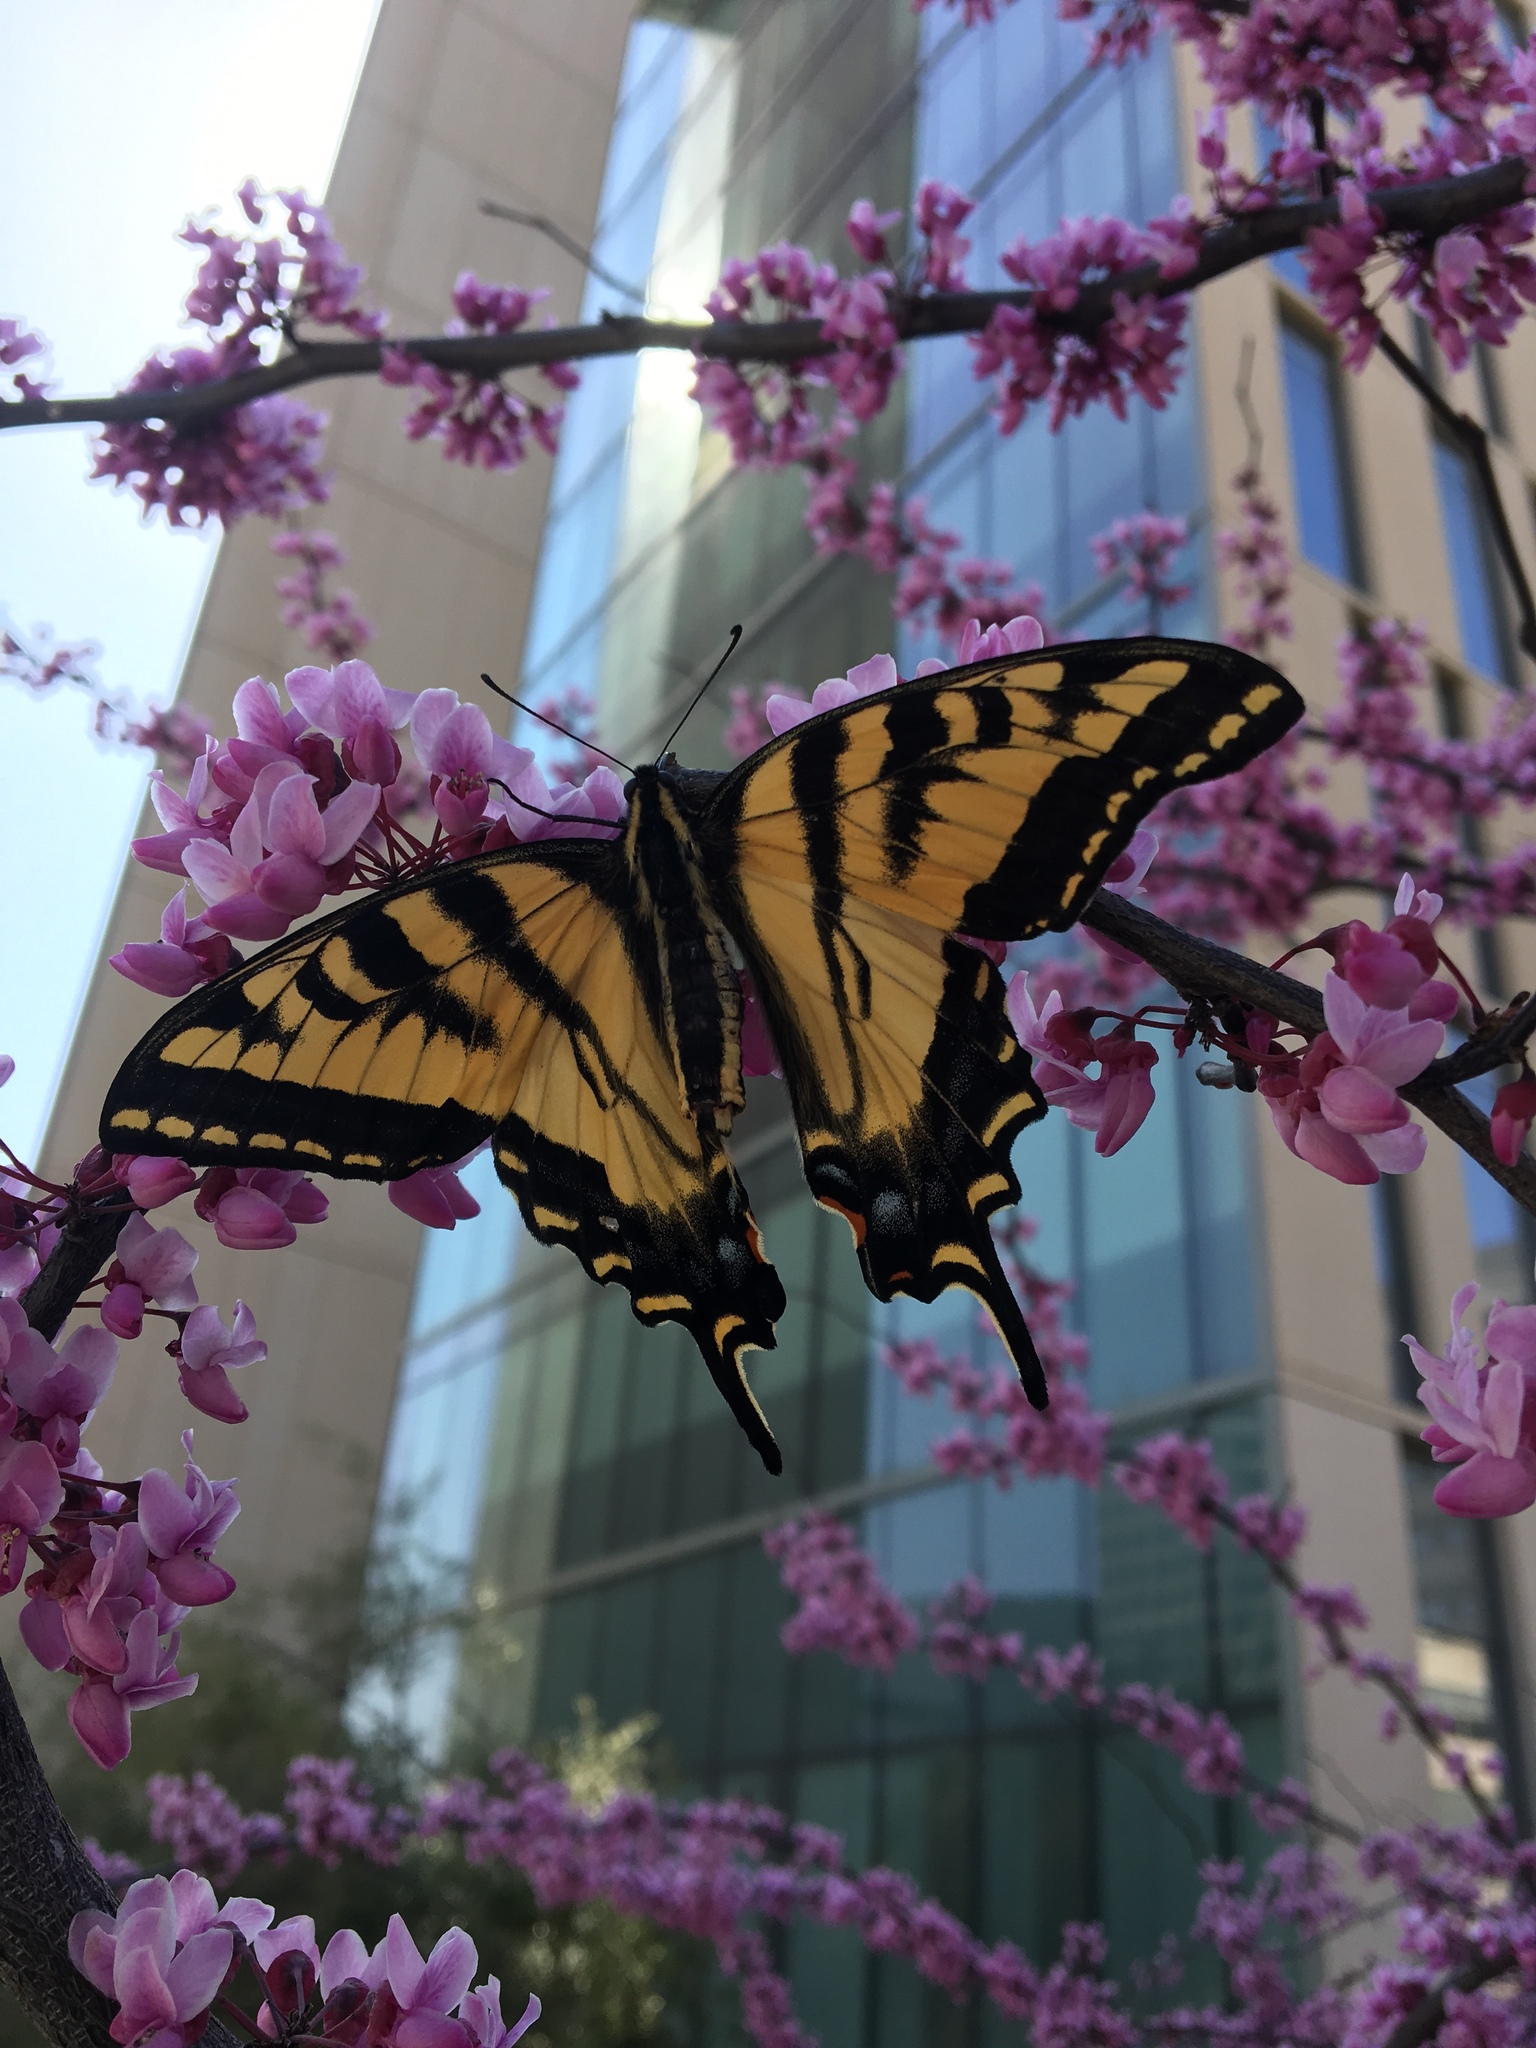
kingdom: Animalia
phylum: Arthropoda
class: Insecta
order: Lepidoptera
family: Papilionidae
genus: Papilio
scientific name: Papilio rutulus
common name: Western tiger swallowtail
